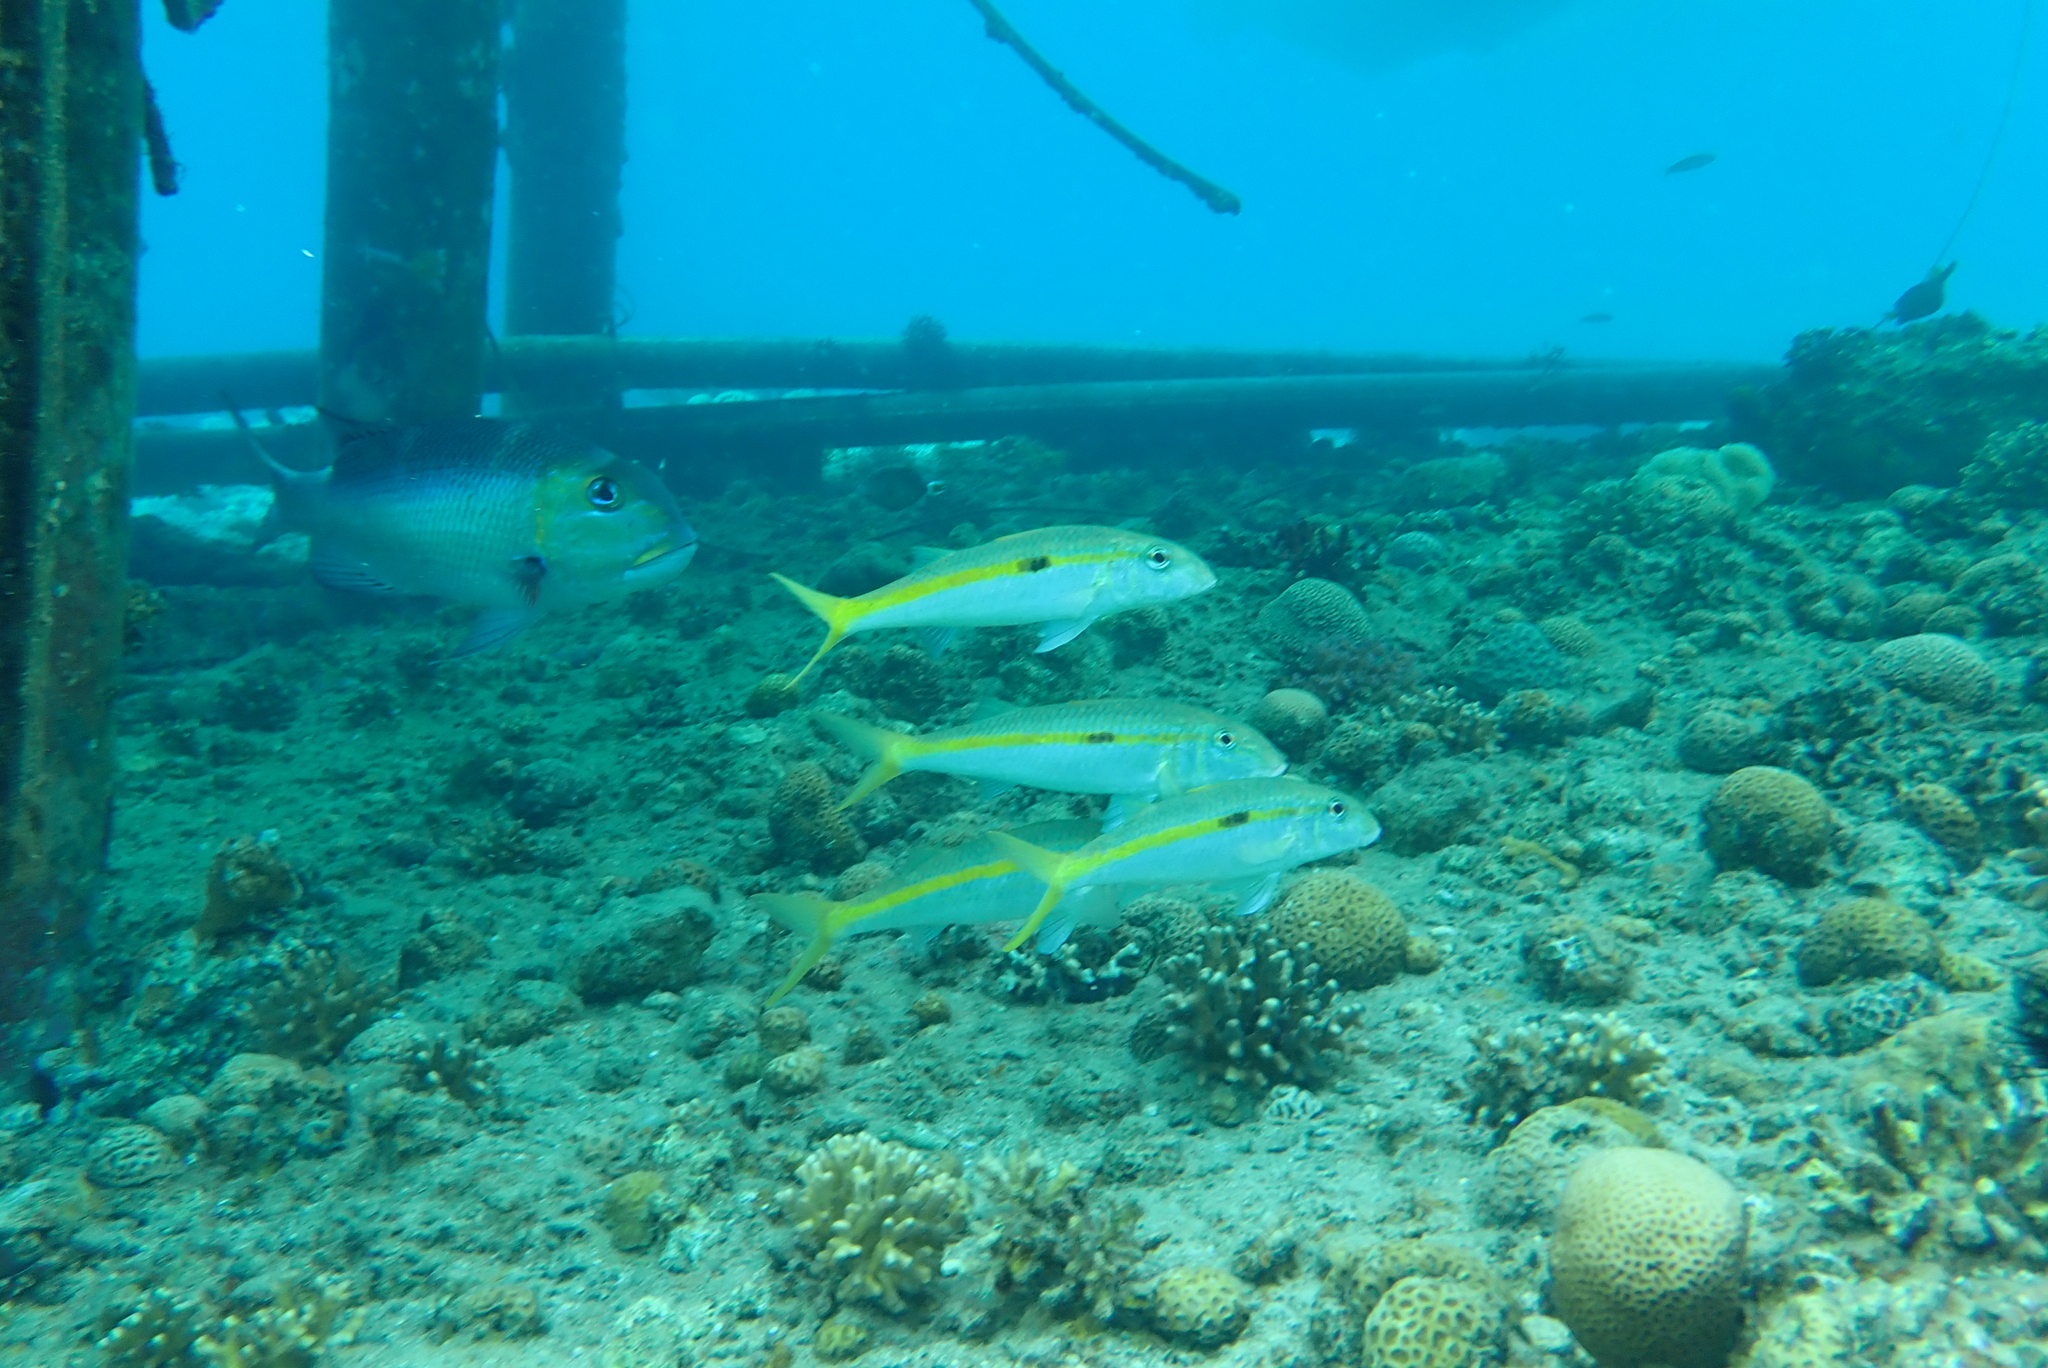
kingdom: Animalia
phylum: Chordata
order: Perciformes
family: Mullidae
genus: Mulloidichthys
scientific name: Mulloidichthys flavolineatus
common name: Yellowstripe goatfish
